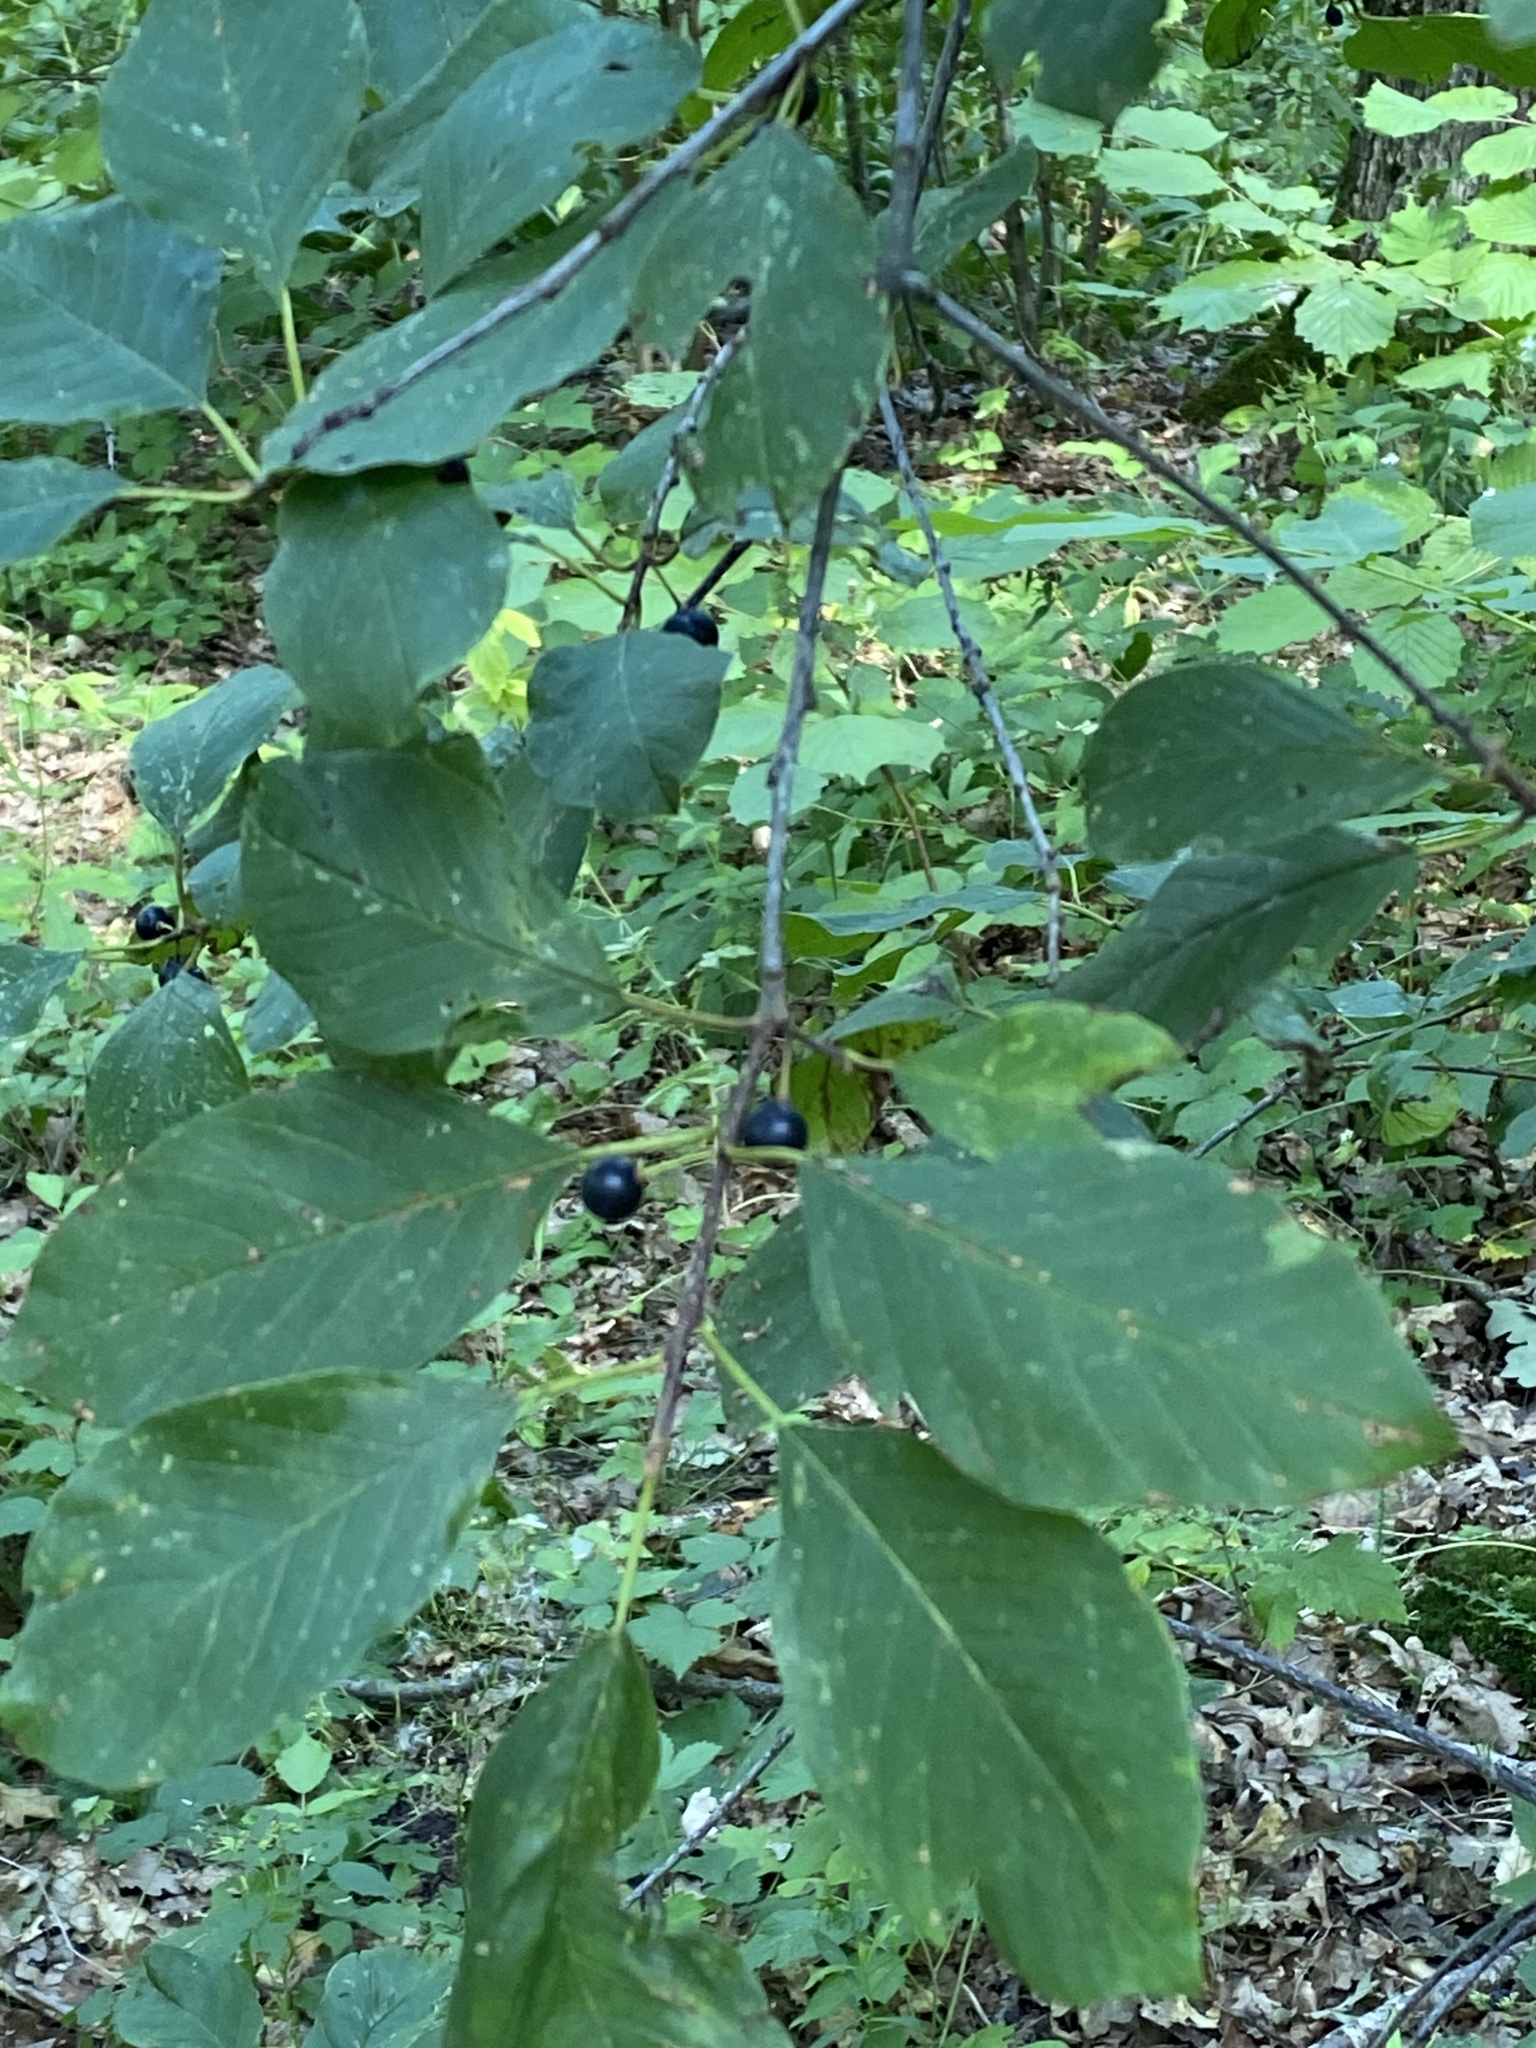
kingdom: Plantae
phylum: Tracheophyta
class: Magnoliopsida
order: Rosales
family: Rhamnaceae
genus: Frangula
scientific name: Frangula alnus
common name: Alder buckthorn
